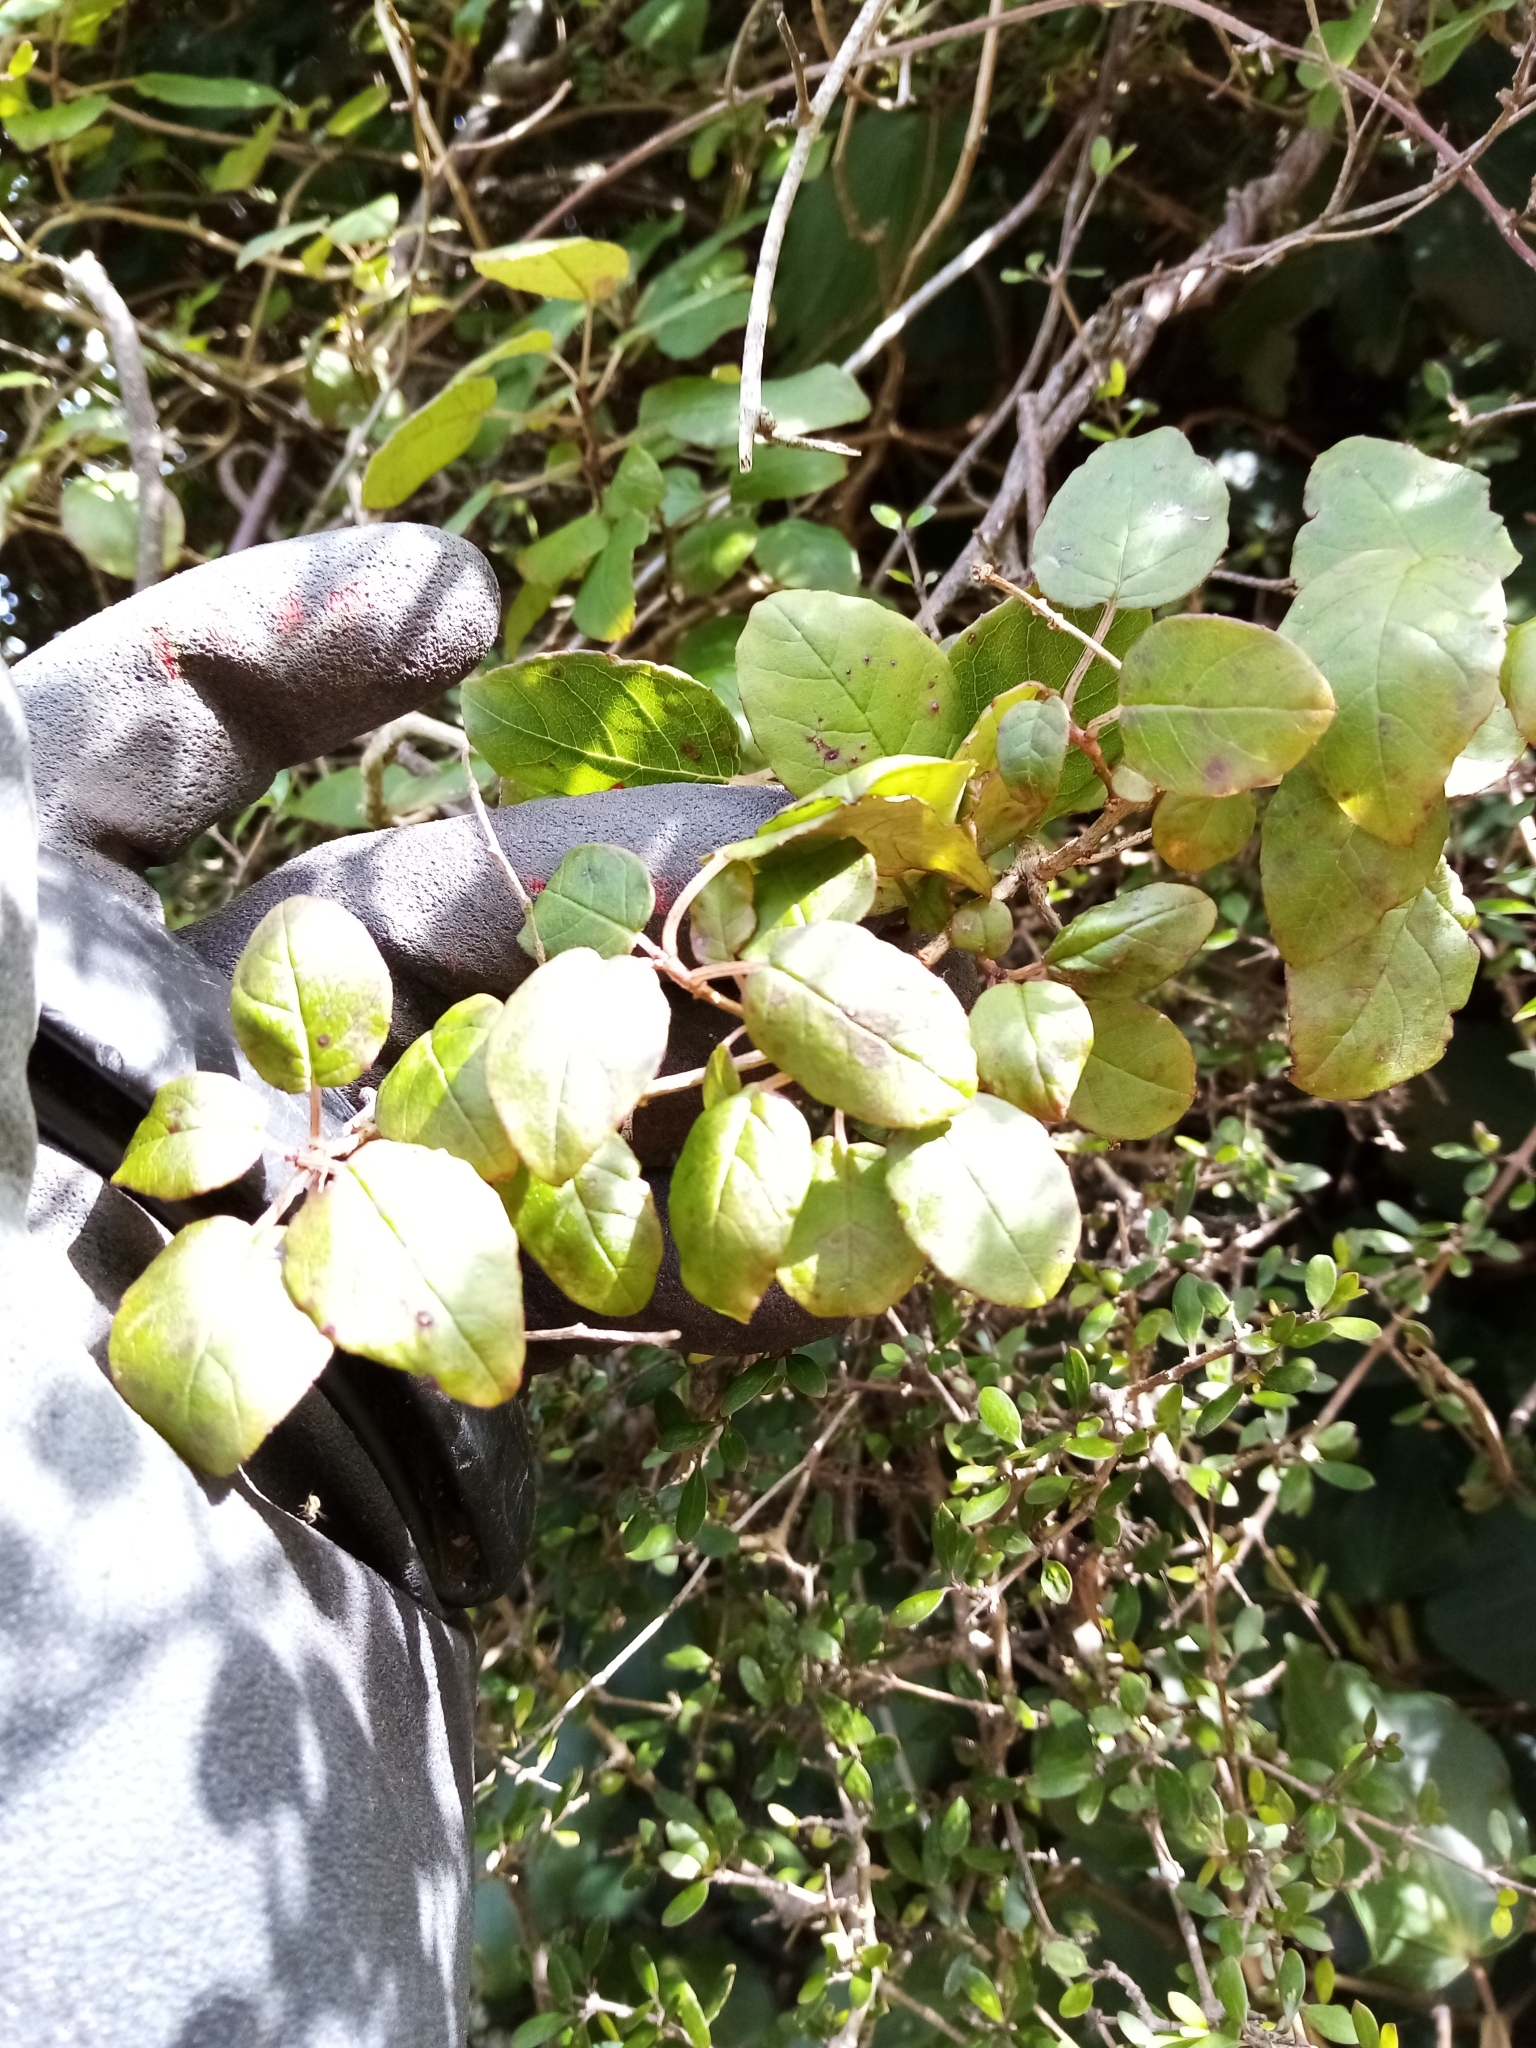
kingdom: Plantae
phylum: Tracheophyta
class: Magnoliopsida
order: Myrtales
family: Onagraceae
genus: Fuchsia
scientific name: Fuchsia perscandens
